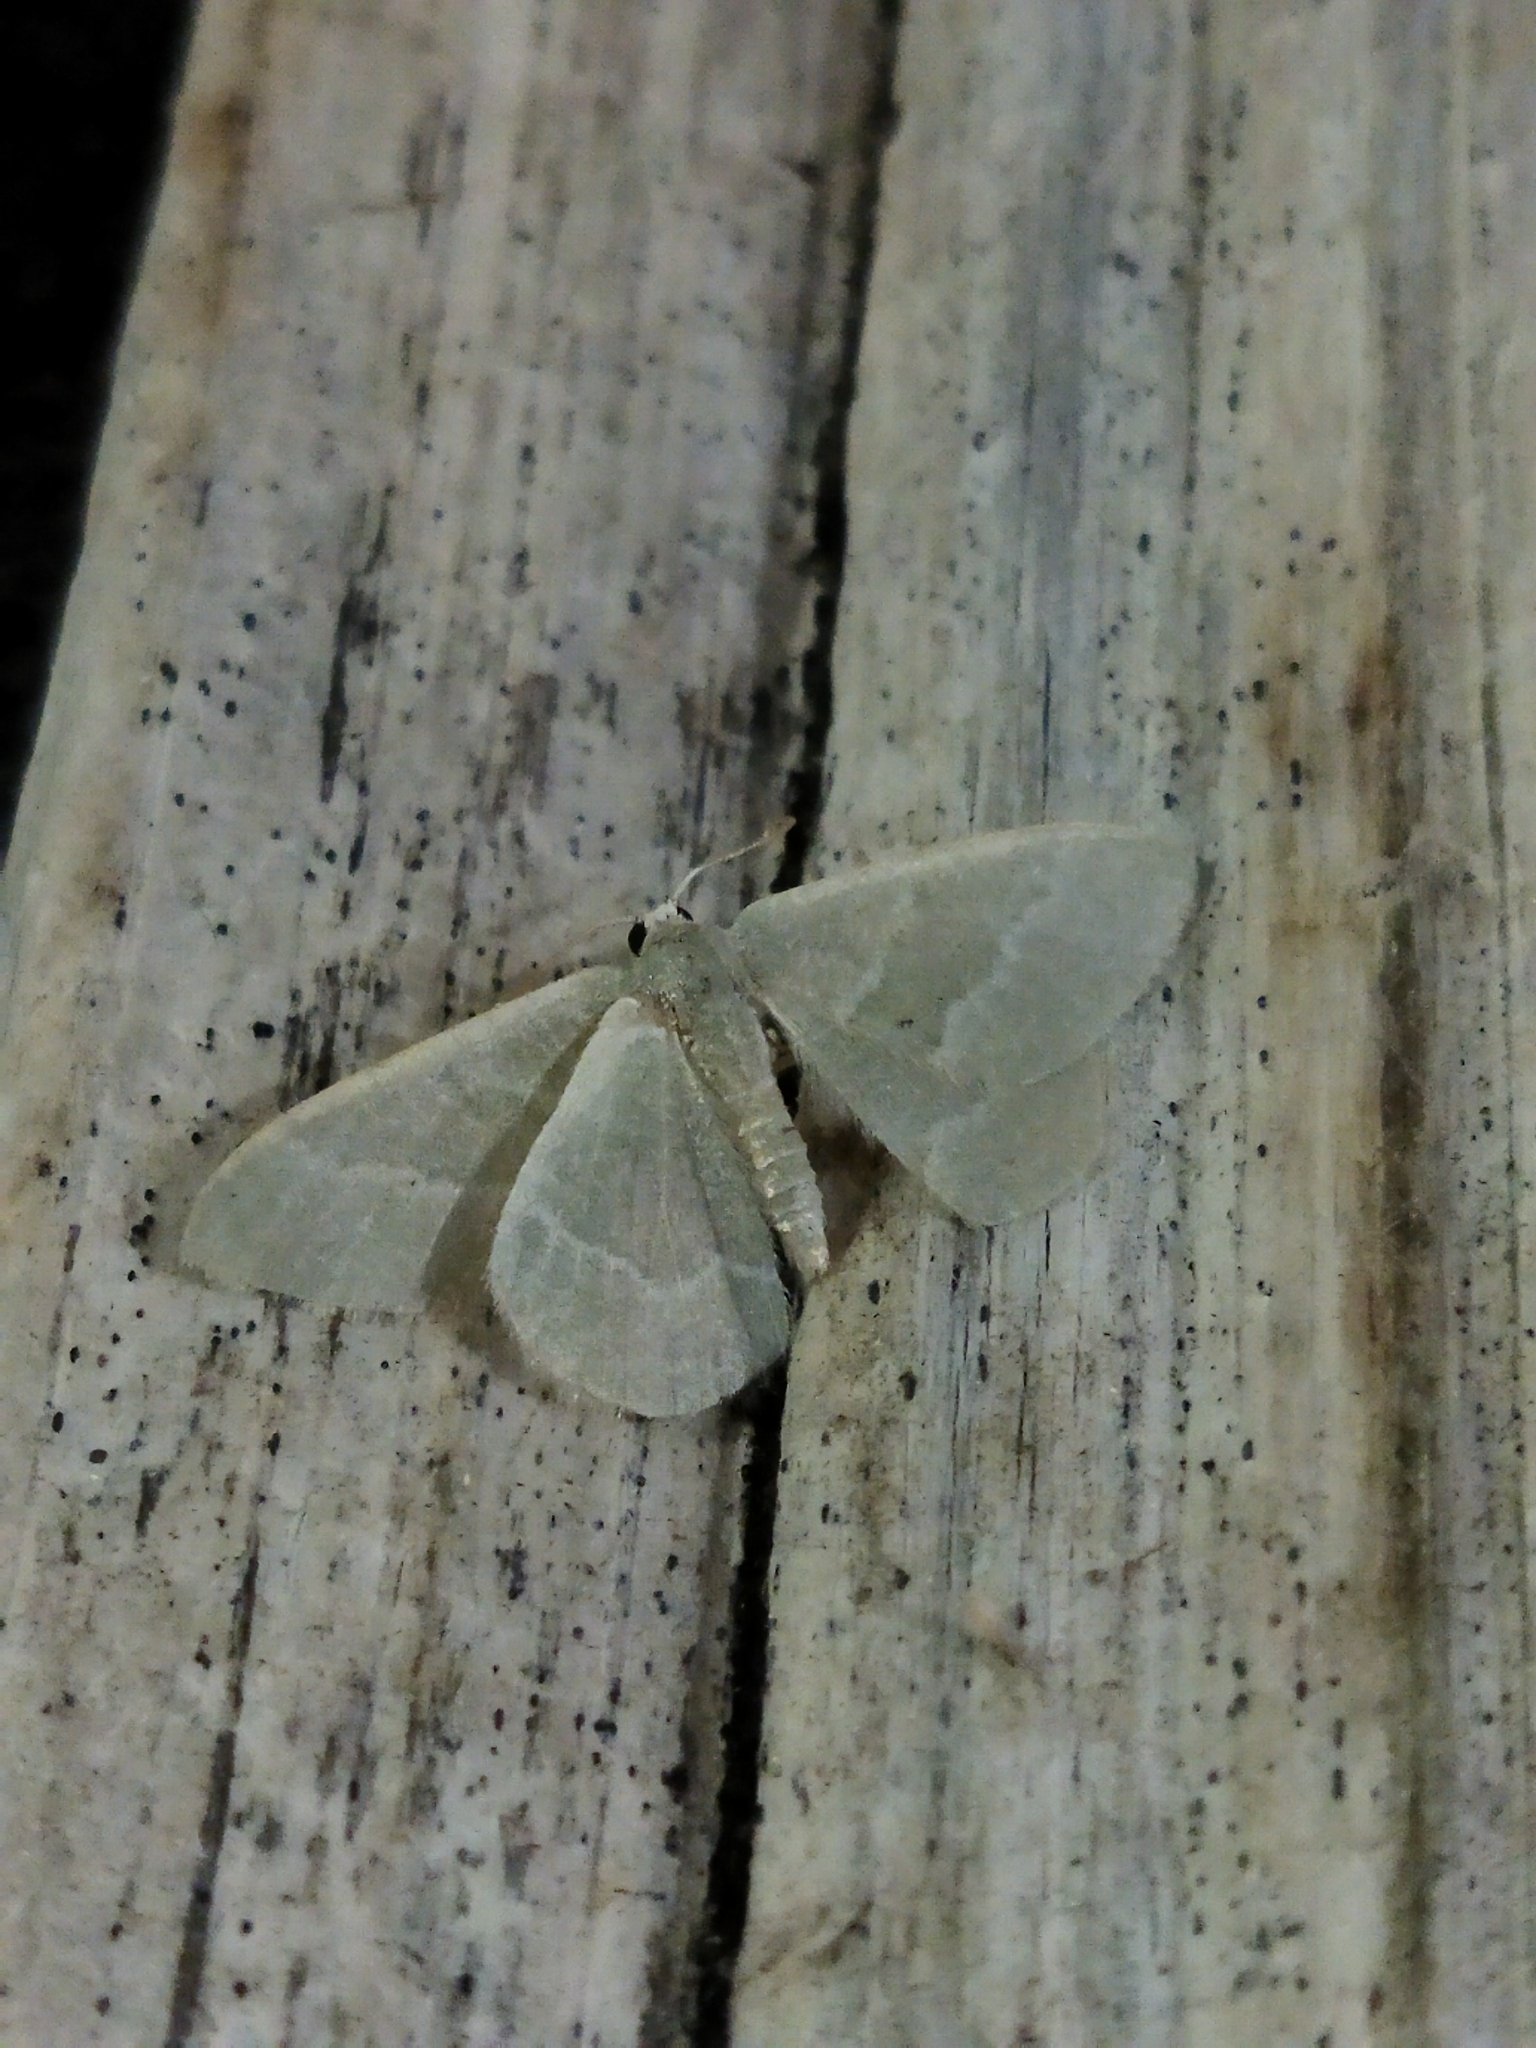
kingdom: Animalia
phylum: Arthropoda
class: Insecta
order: Lepidoptera
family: Geometridae
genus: Chlorissa
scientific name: Chlorissa etruscaria
